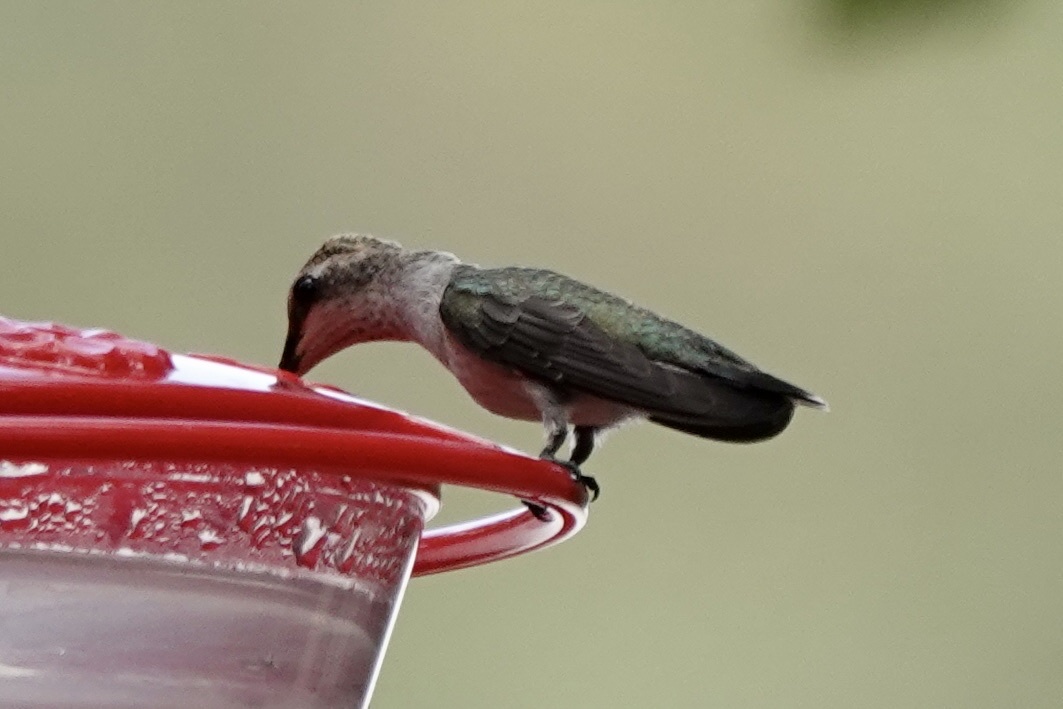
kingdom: Animalia
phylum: Chordata
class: Aves
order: Apodiformes
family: Trochilidae
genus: Archilochus
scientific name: Archilochus alexandri
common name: Black-chinned hummingbird
